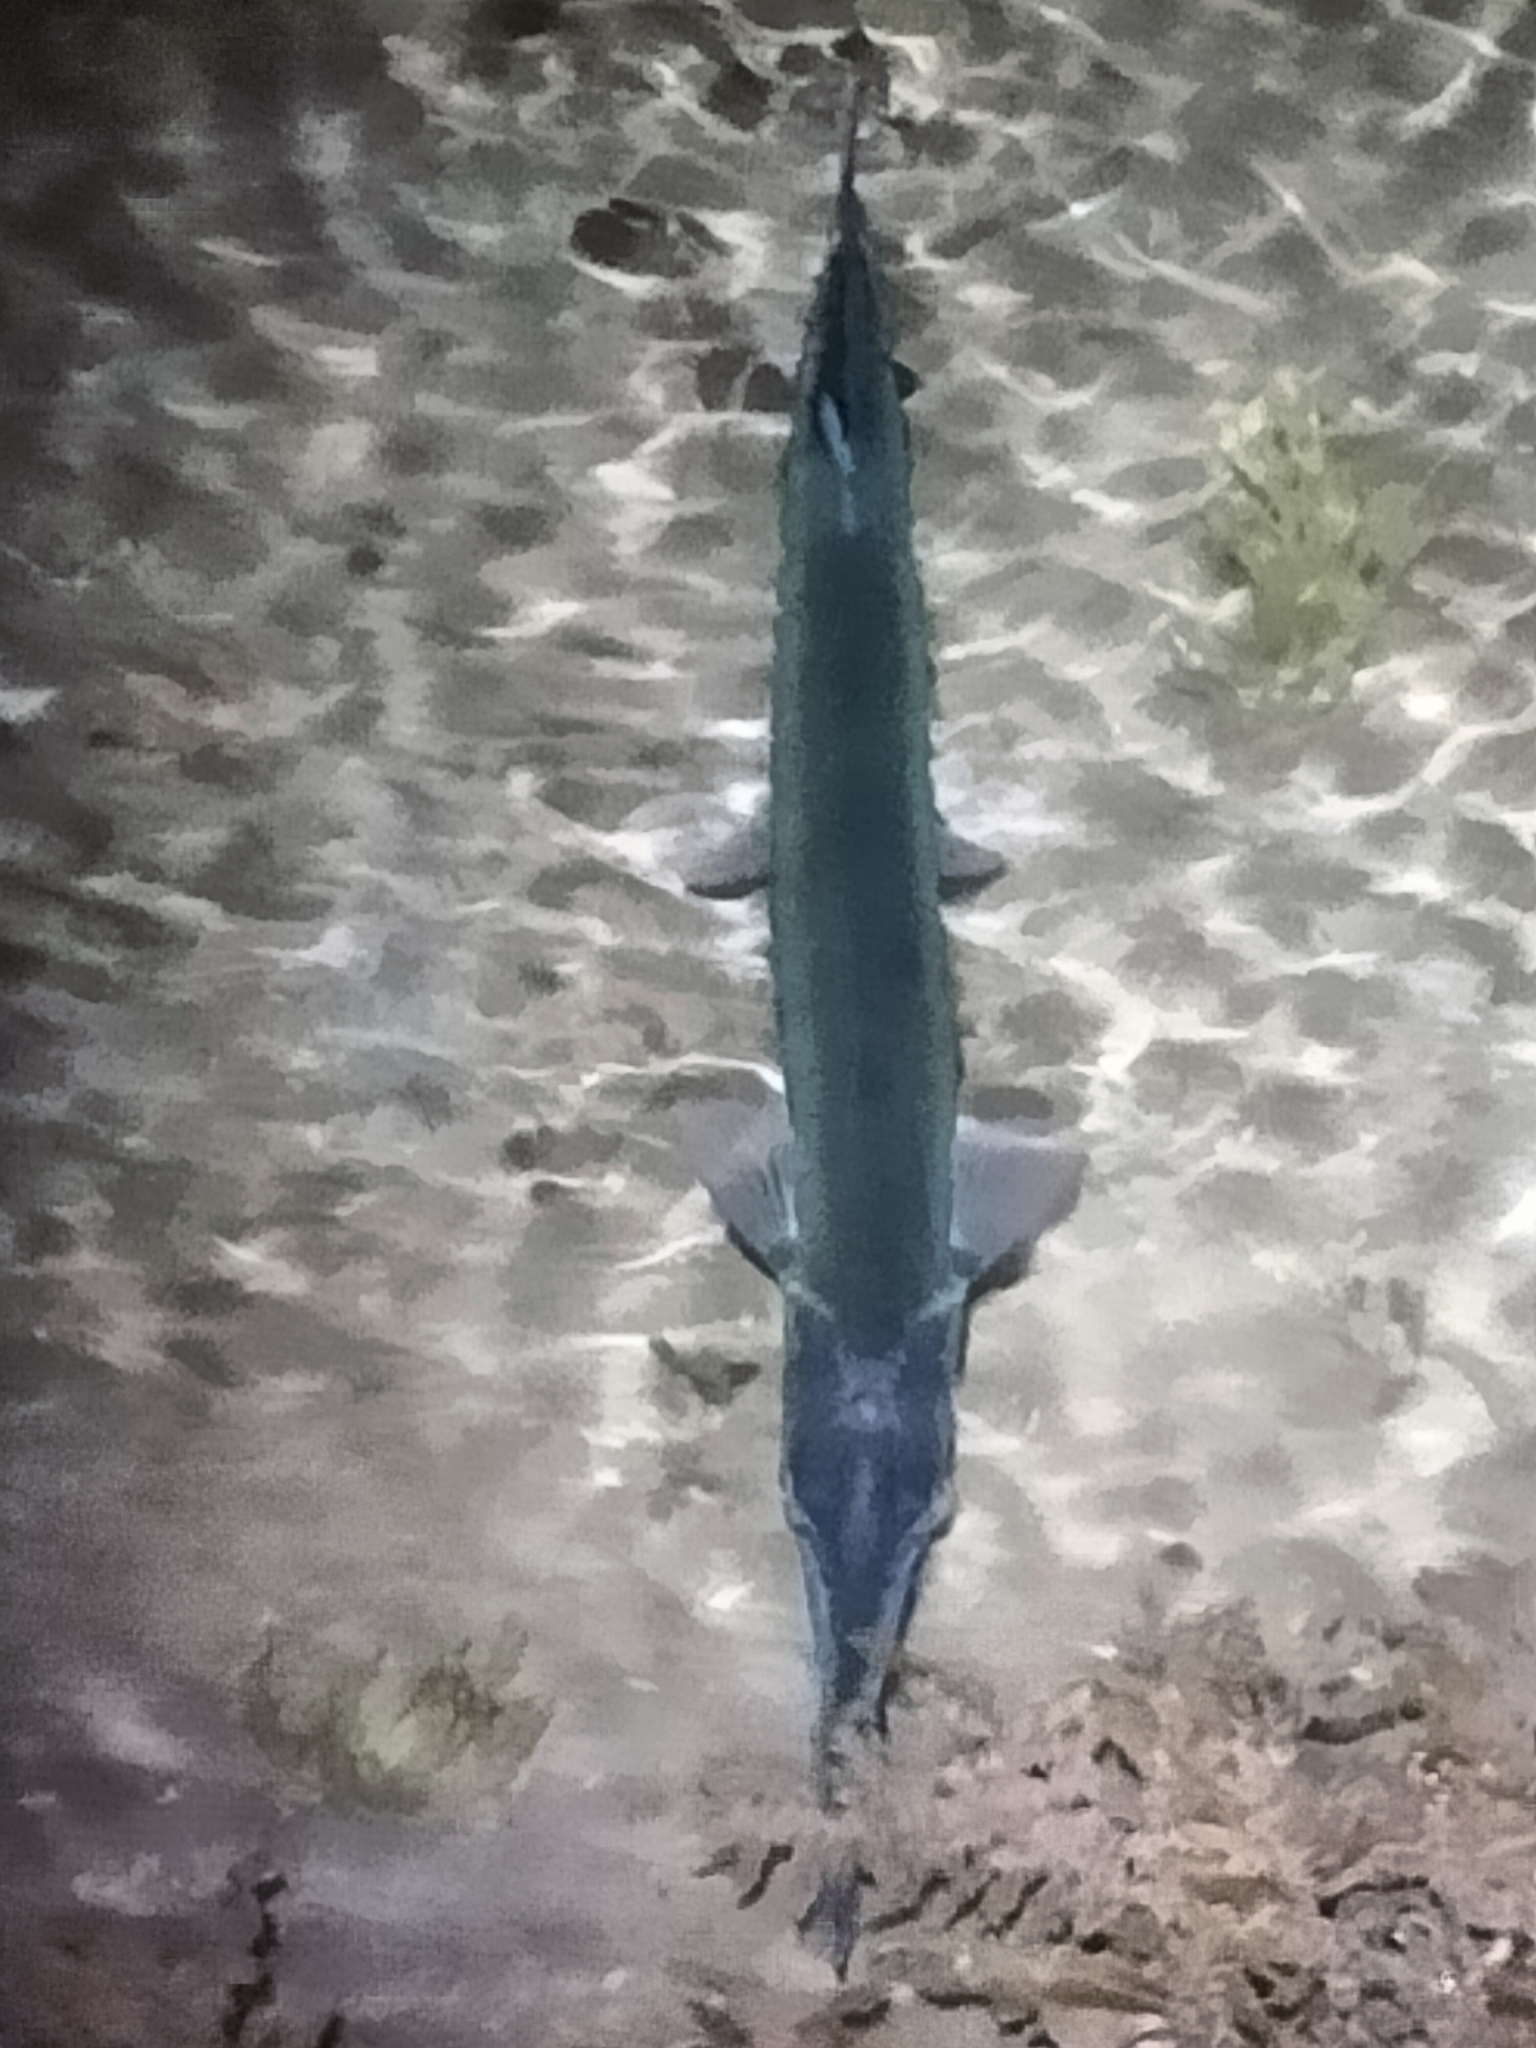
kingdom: Animalia
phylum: Chordata
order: Beloniformes
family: Belonidae
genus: Tylosurus
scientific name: Tylosurus crocodilus
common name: Houndfish
